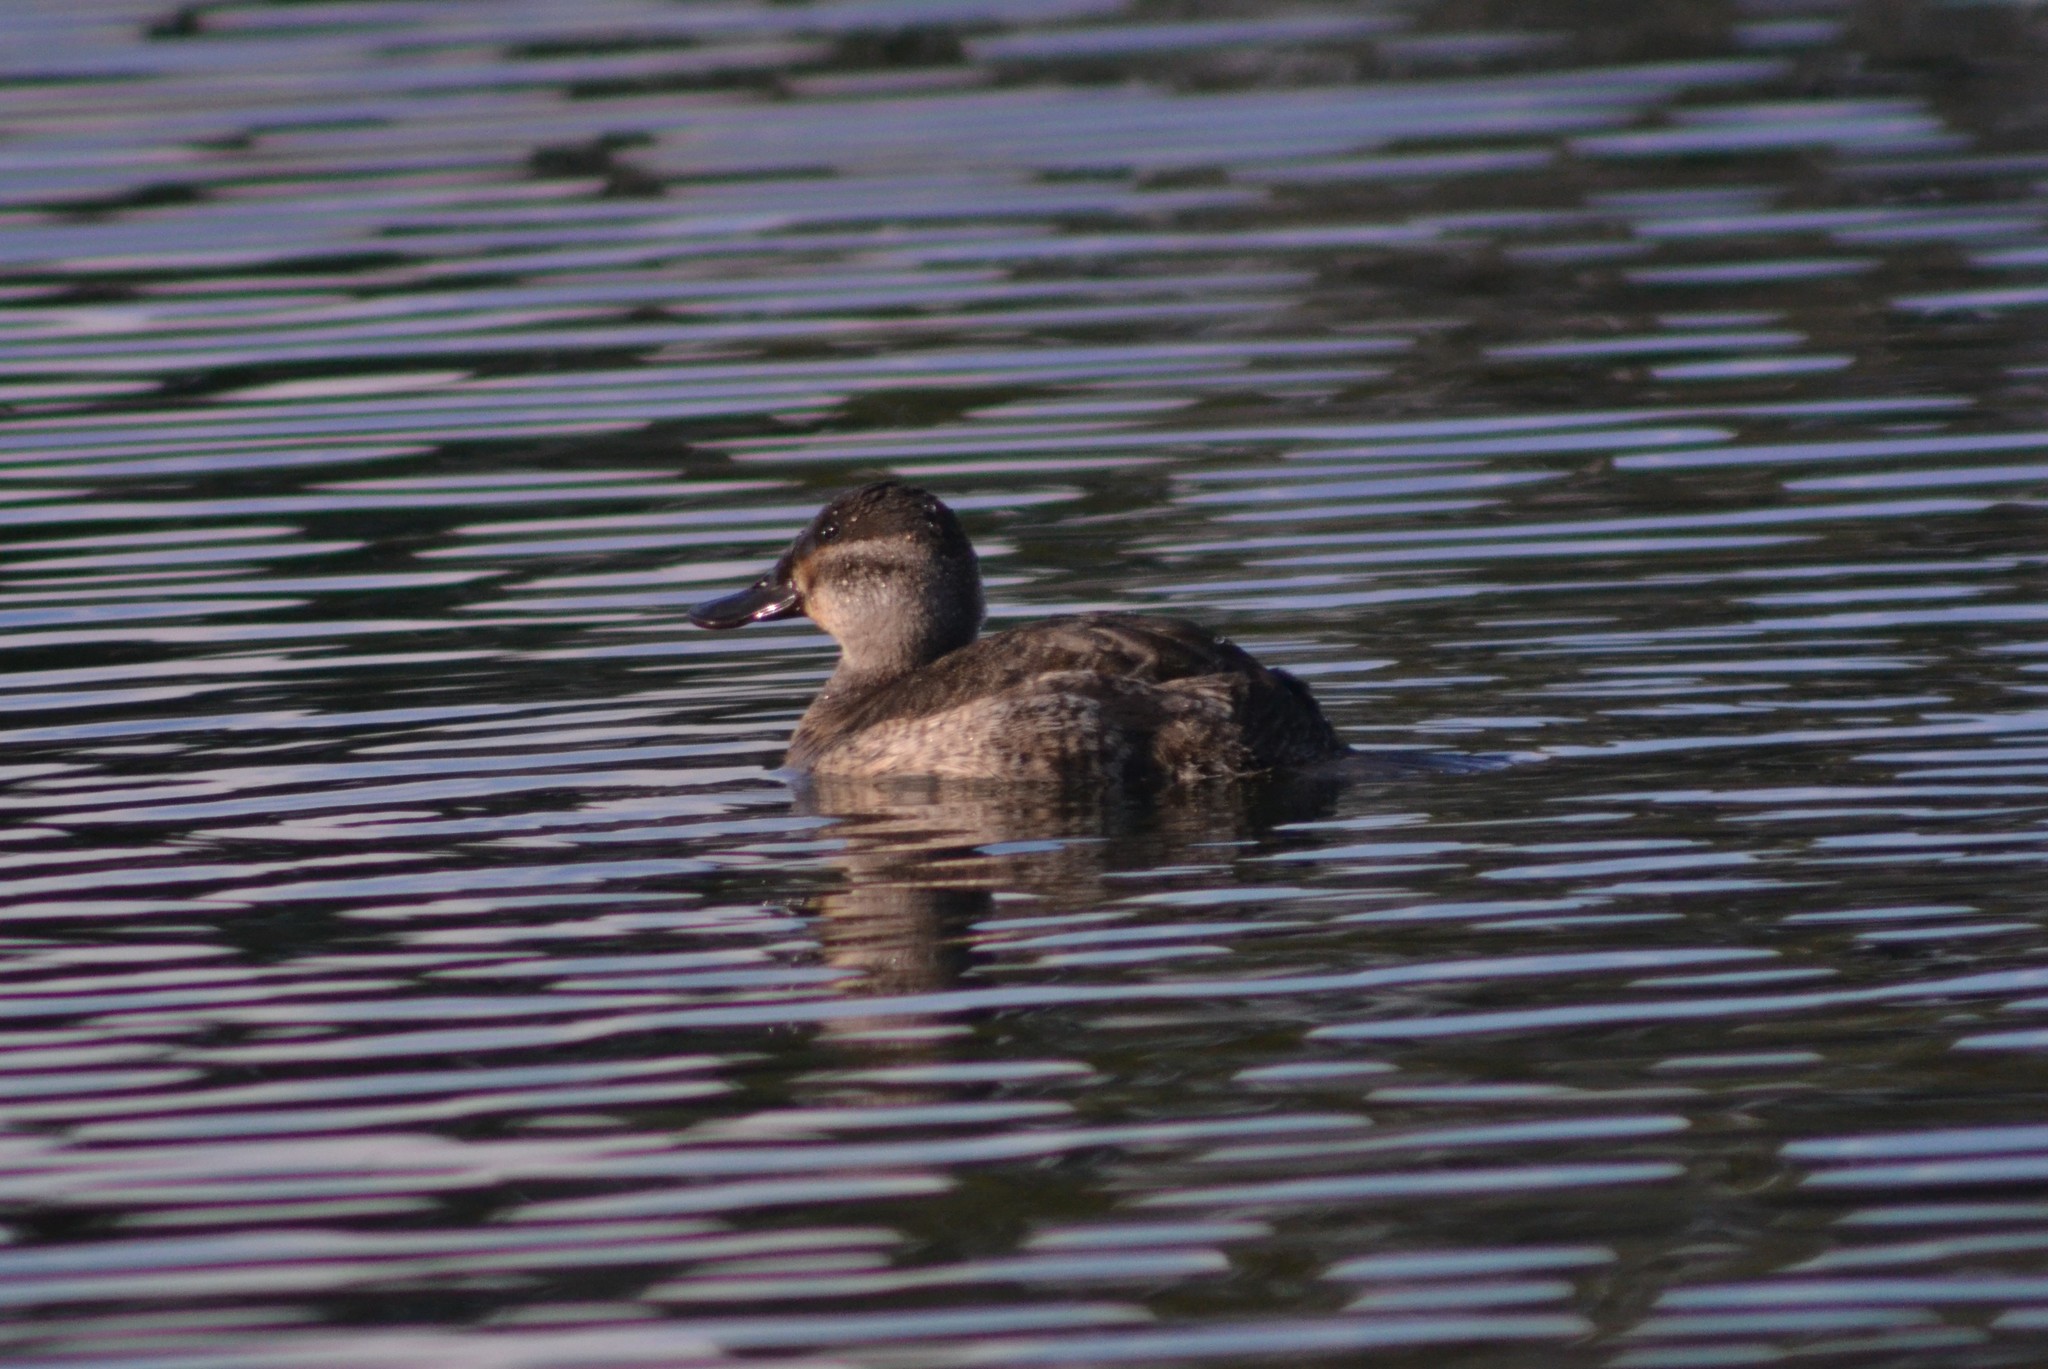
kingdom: Animalia
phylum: Chordata
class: Aves
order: Anseriformes
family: Anatidae
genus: Oxyura
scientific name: Oxyura jamaicensis
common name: Ruddy duck
